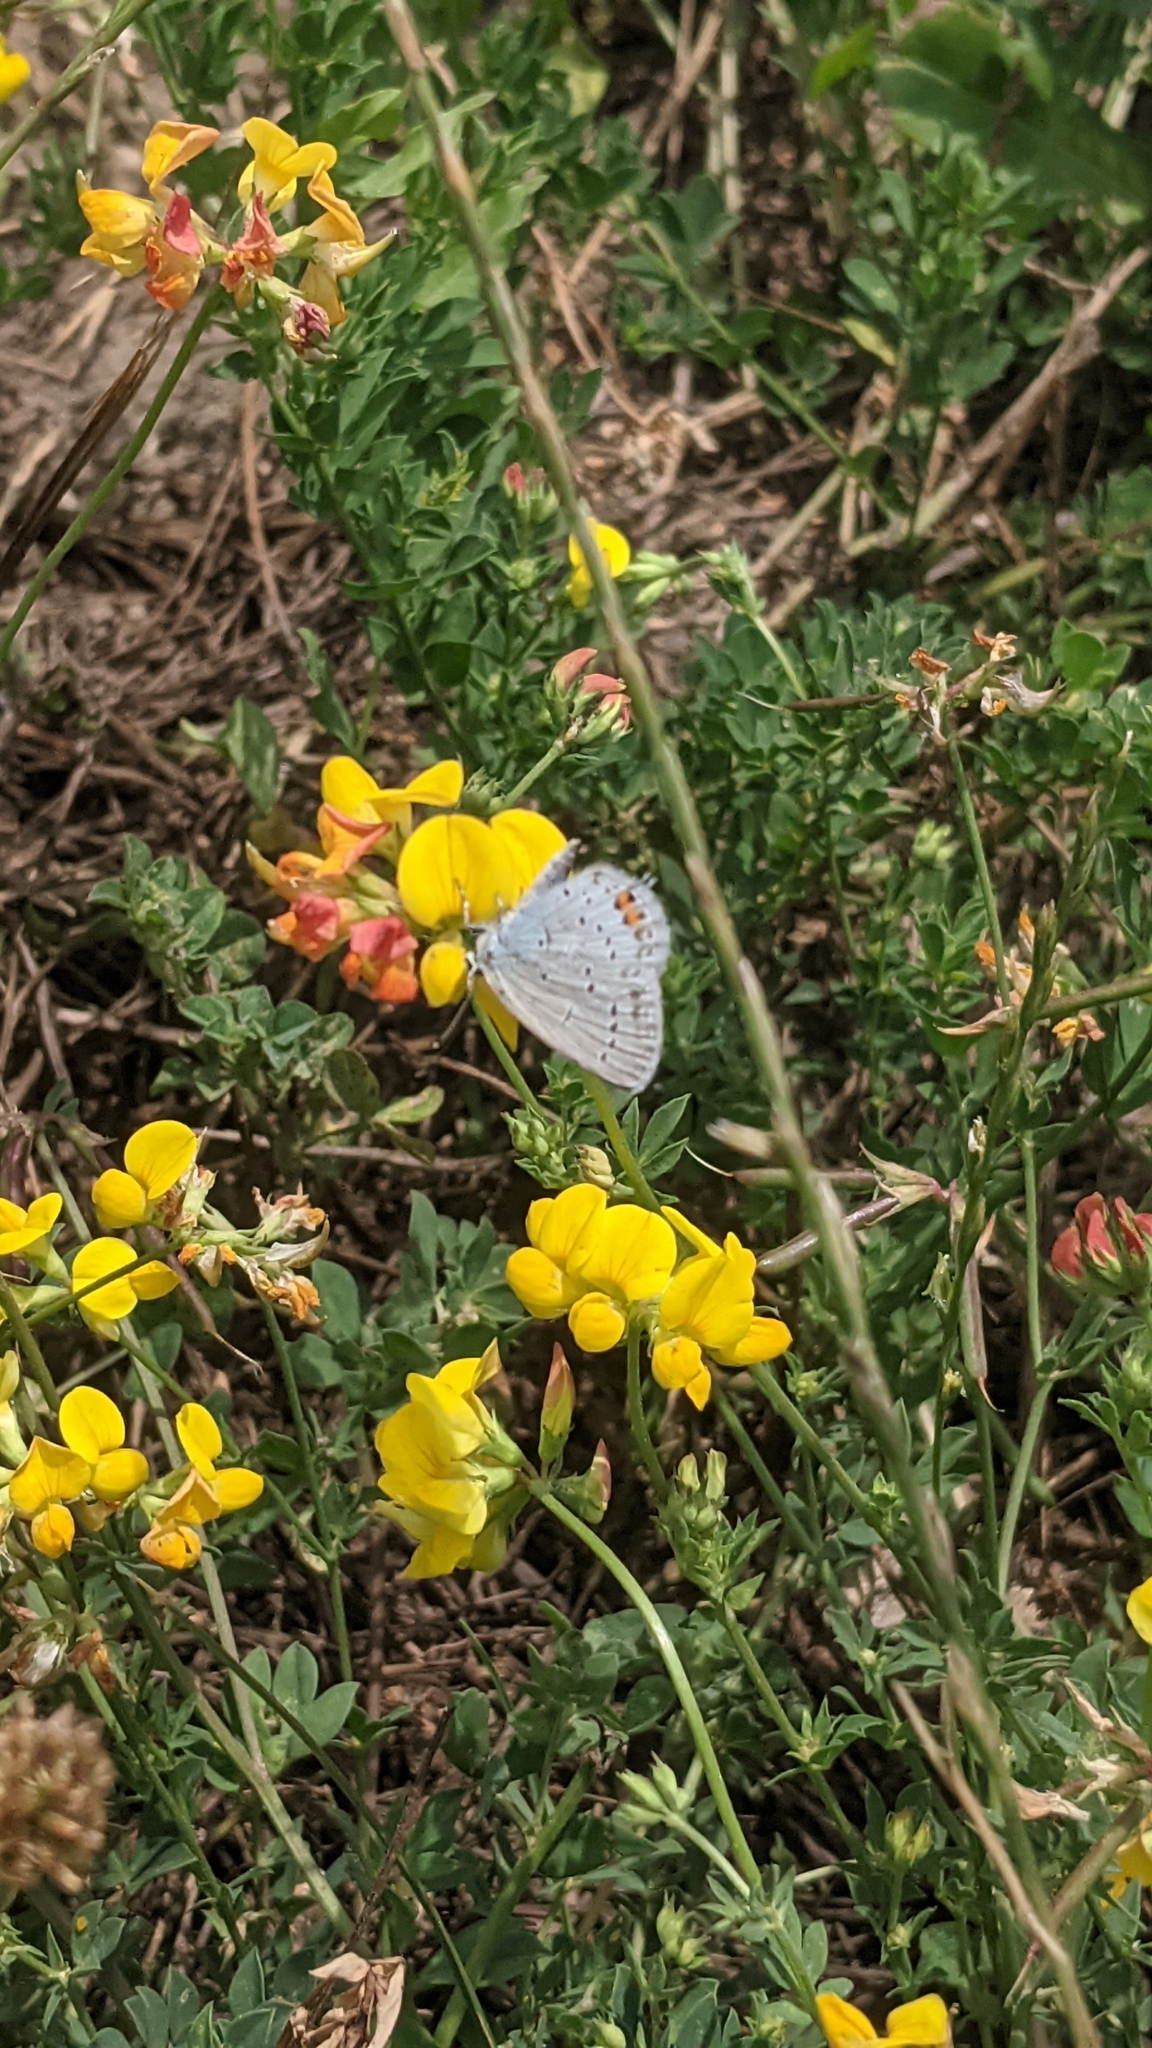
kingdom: Animalia
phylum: Arthropoda
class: Insecta
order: Lepidoptera
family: Lycaenidae
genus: Elkalyce
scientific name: Elkalyce argiades
